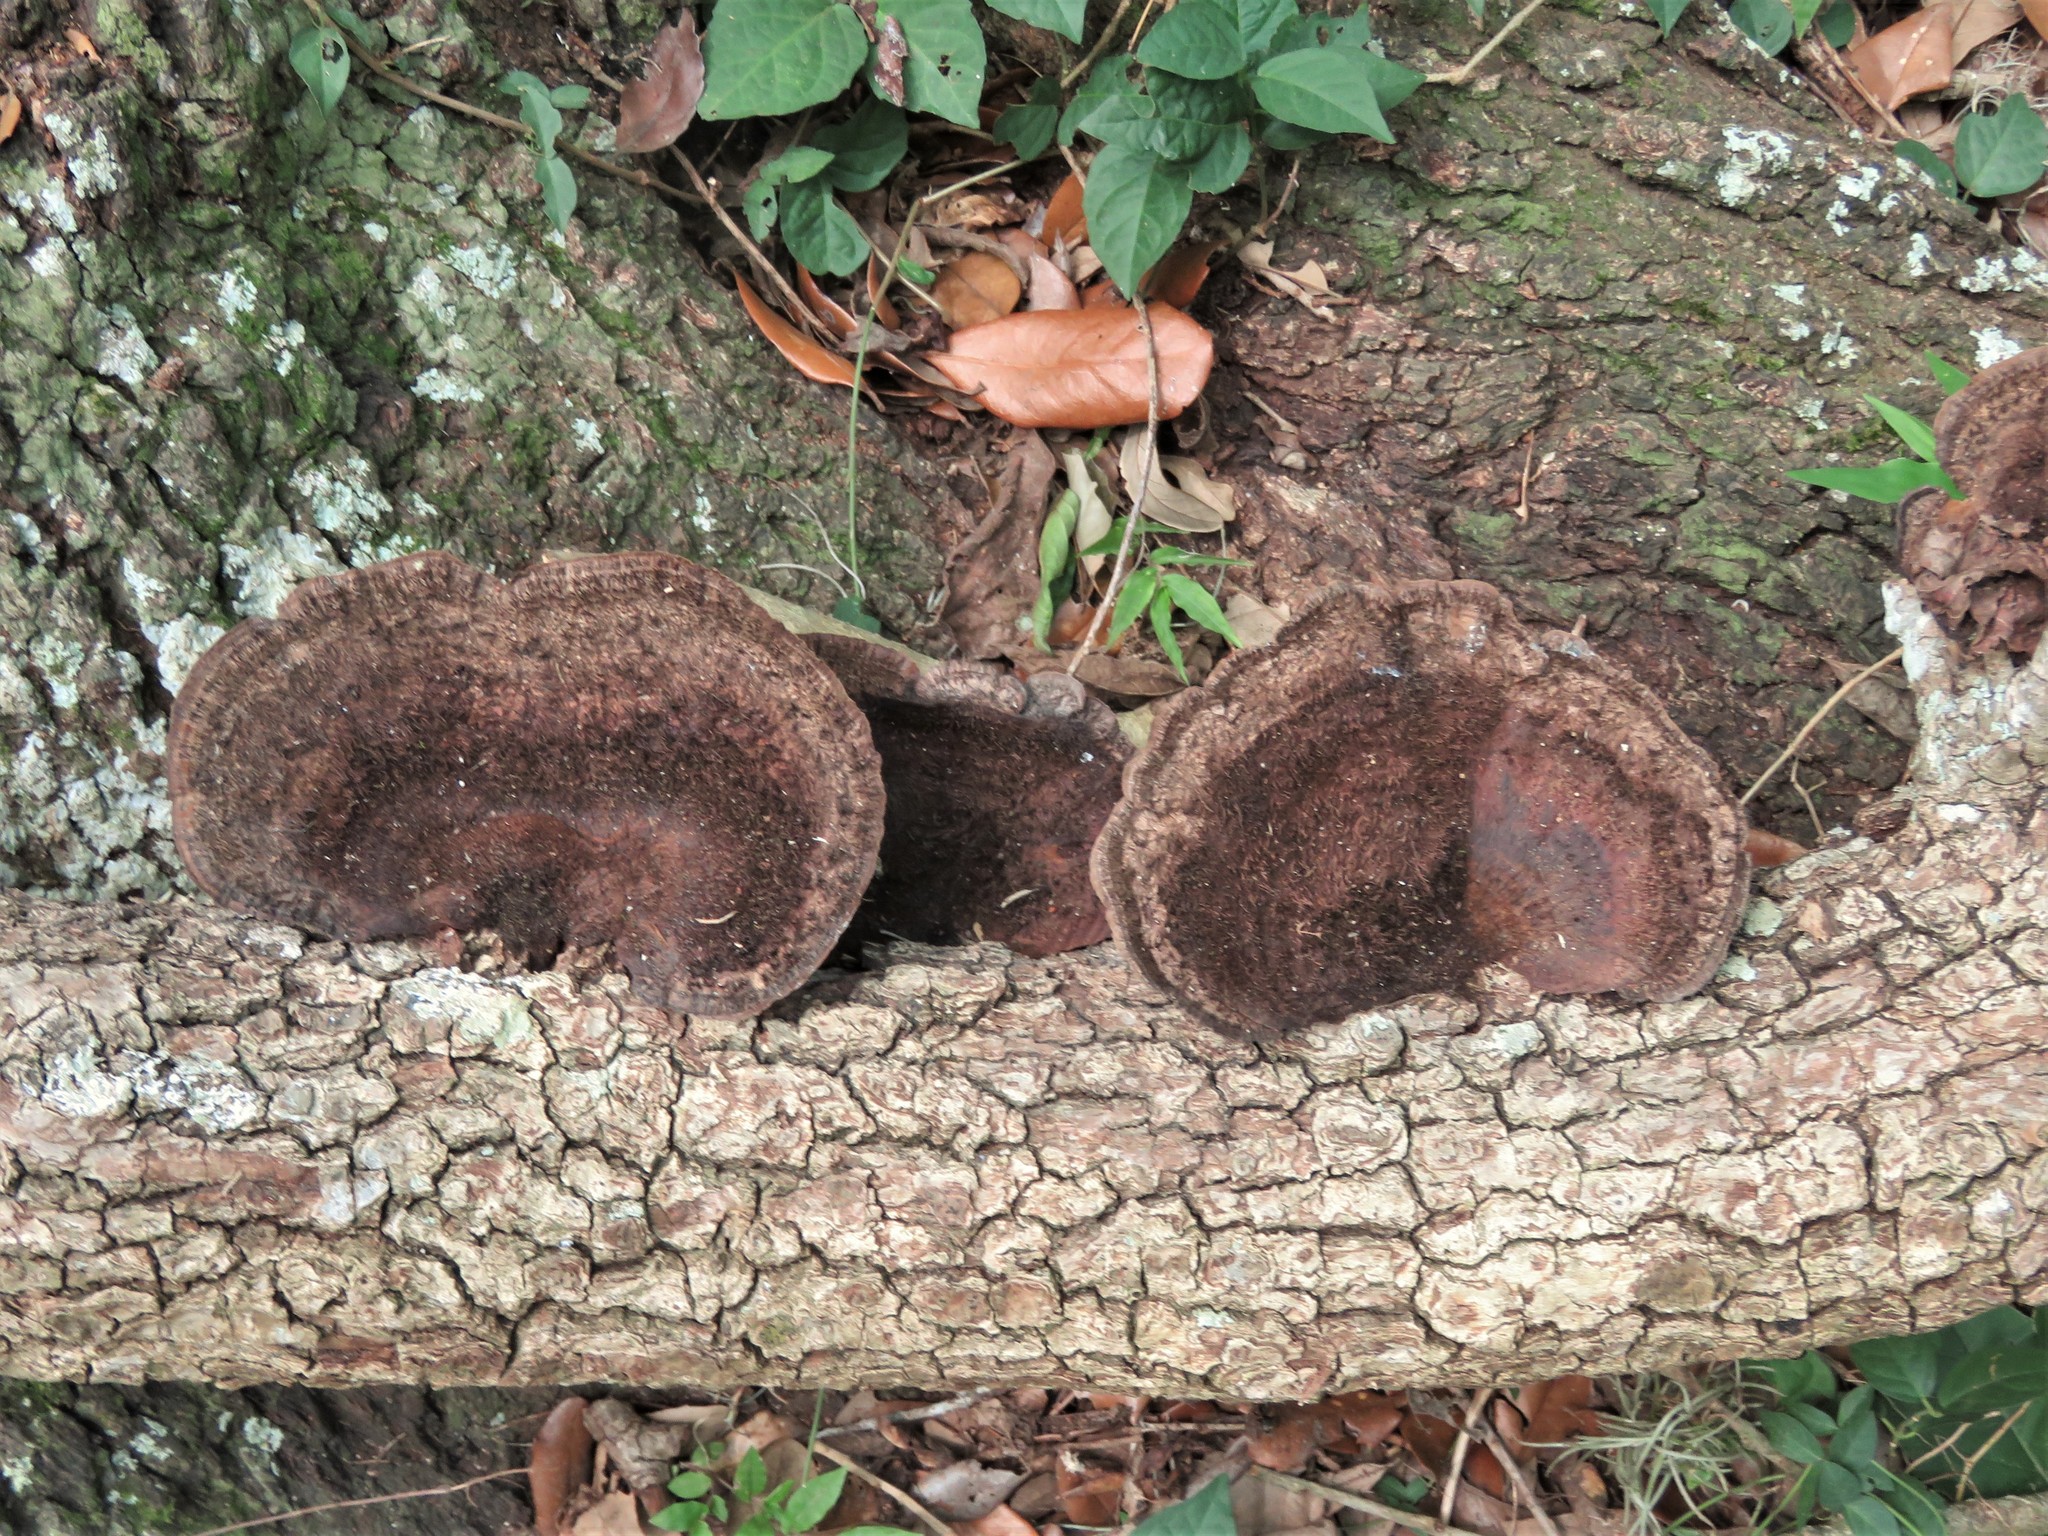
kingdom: Fungi
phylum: Basidiomycota
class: Agaricomycetes
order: Polyporales
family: Cerrenaceae
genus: Cerrena
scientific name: Cerrena hydnoides
